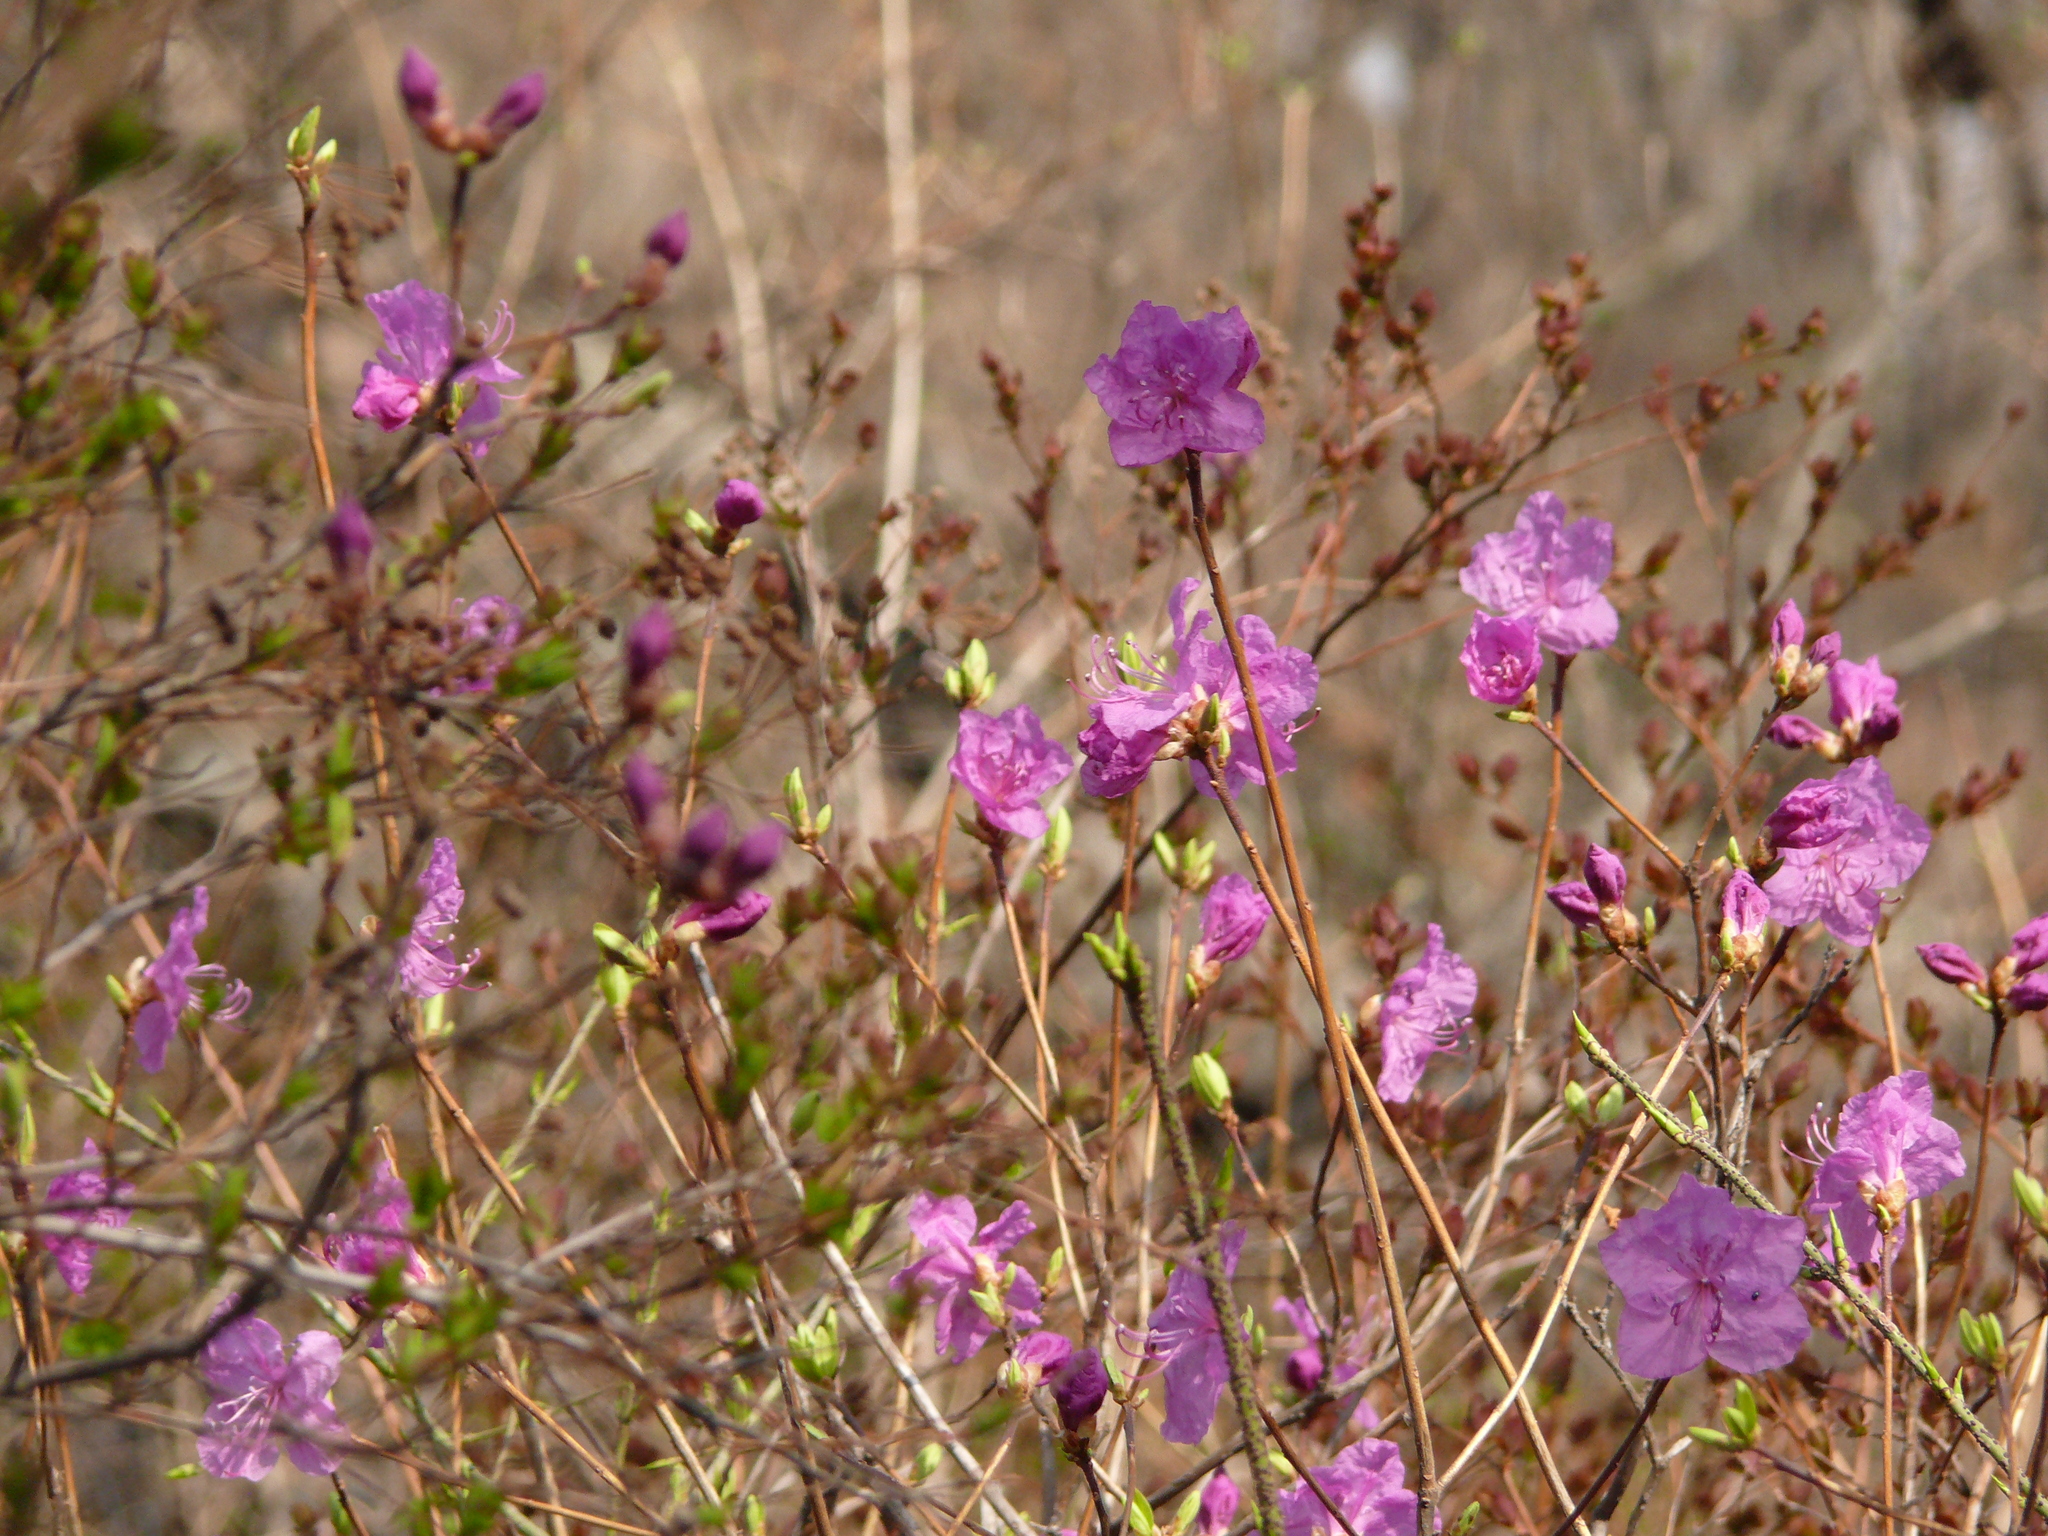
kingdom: Plantae
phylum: Tracheophyta
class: Magnoliopsida
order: Ericales
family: Ericaceae
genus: Rhododendron
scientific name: Rhododendron mucronulatum
